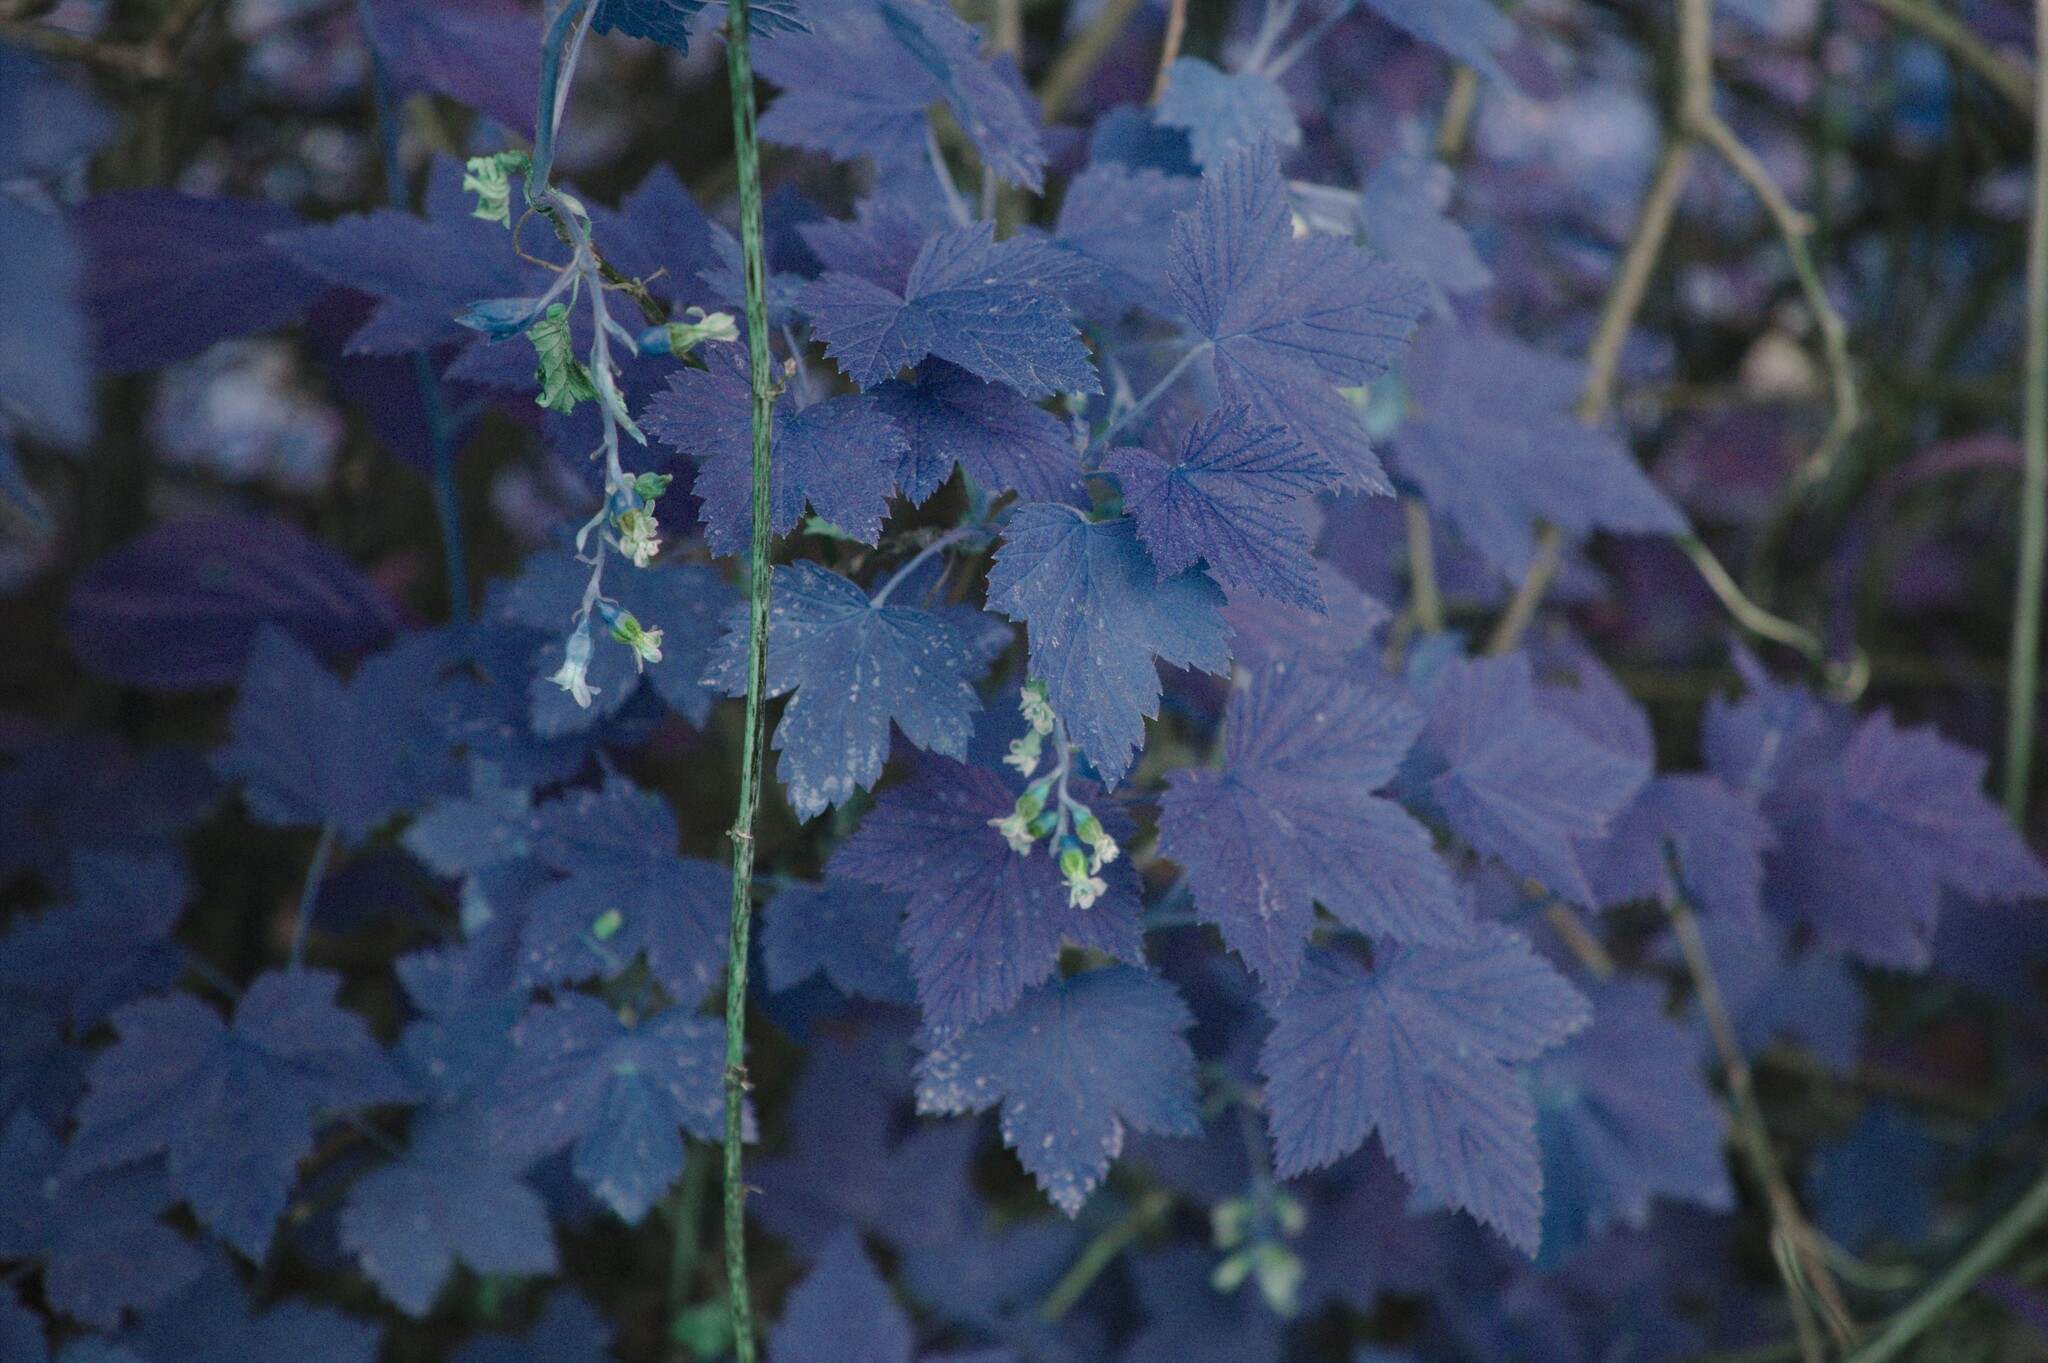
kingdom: Plantae
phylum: Tracheophyta
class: Magnoliopsida
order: Saxifragales
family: Grossulariaceae
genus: Ribes
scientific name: Ribes americanum
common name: American black currant
